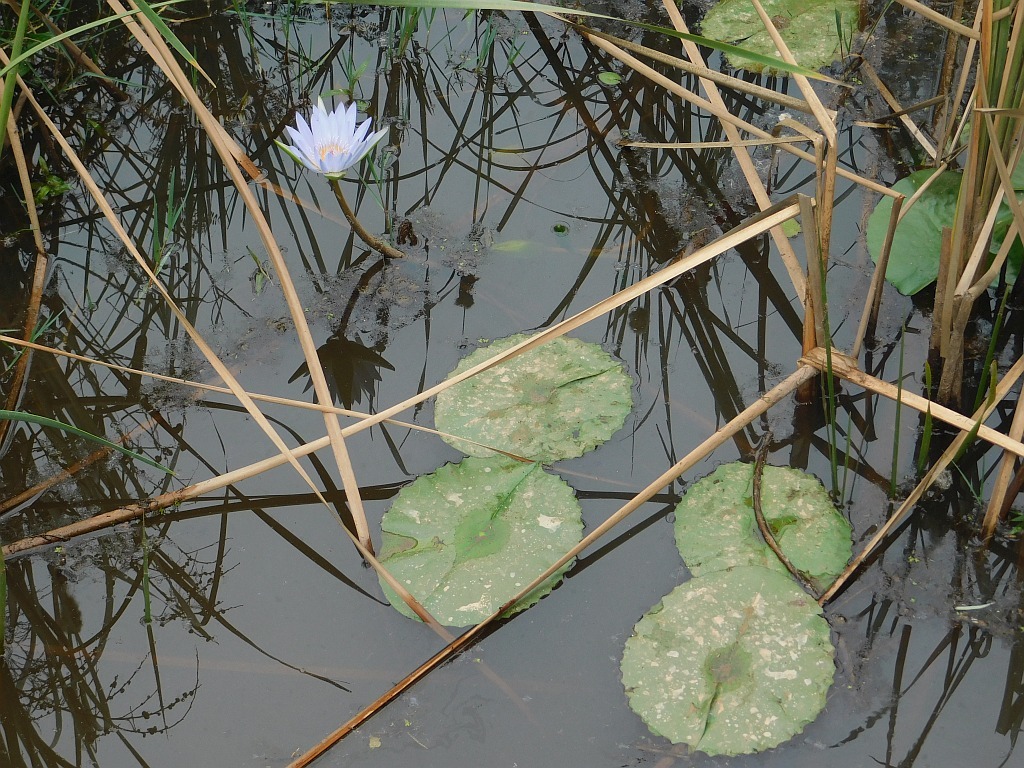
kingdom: Plantae
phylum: Tracheophyta
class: Magnoliopsida
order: Nymphaeales
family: Nymphaeaceae
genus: Nymphaea
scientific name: Nymphaea nouchali
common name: Blue lotus
